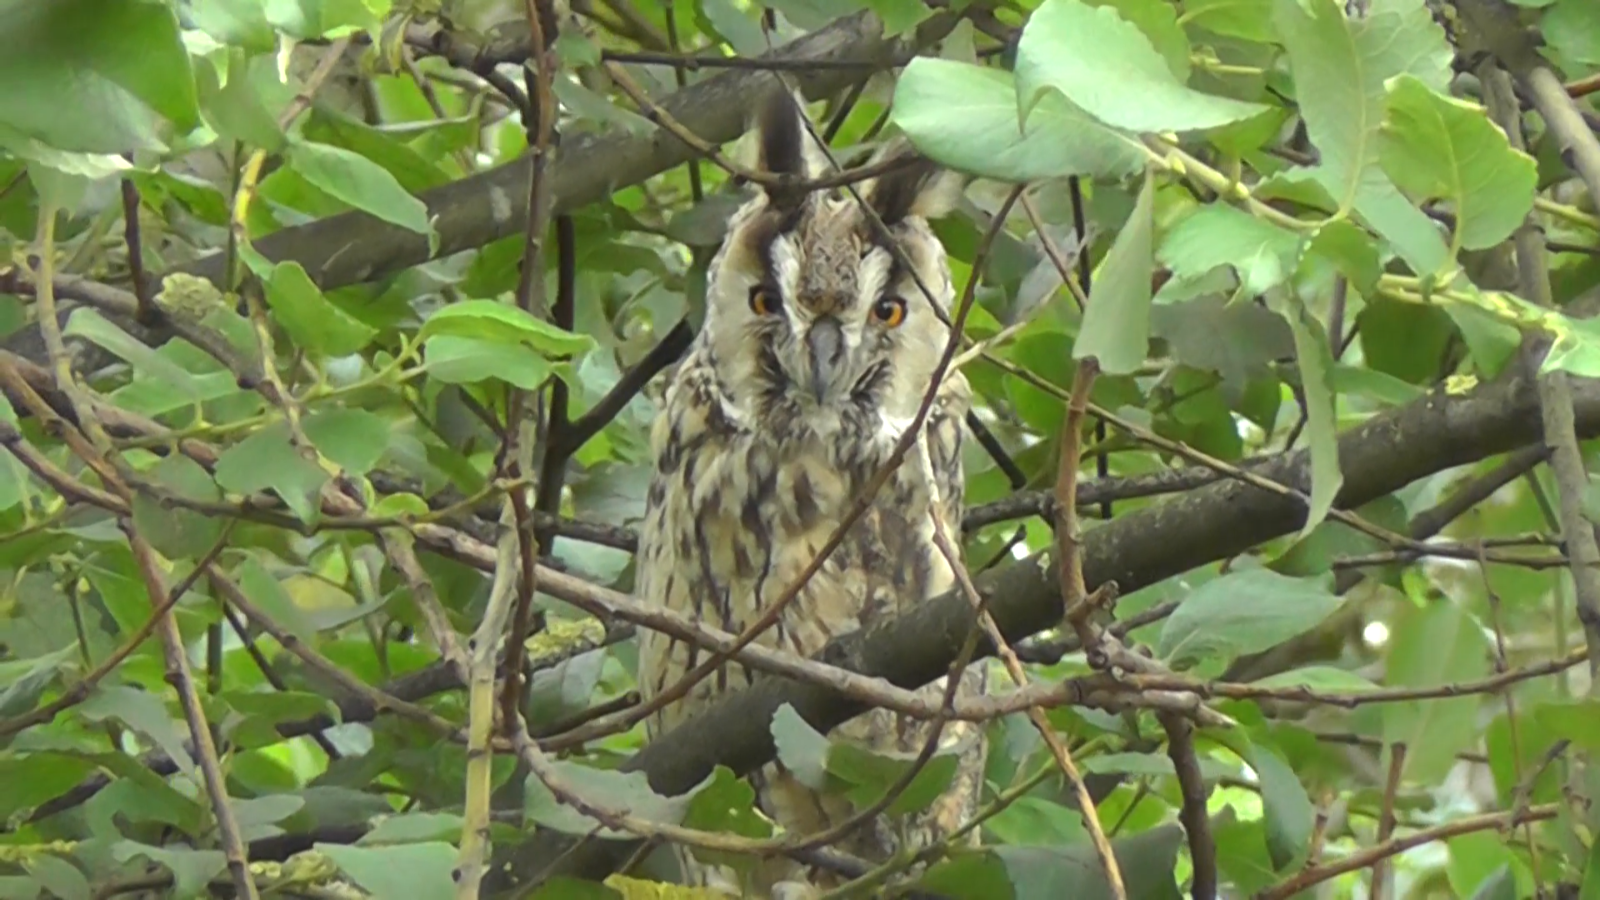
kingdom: Animalia
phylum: Chordata
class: Aves
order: Strigiformes
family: Strigidae
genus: Asio
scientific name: Asio otus
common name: Long-eared owl
